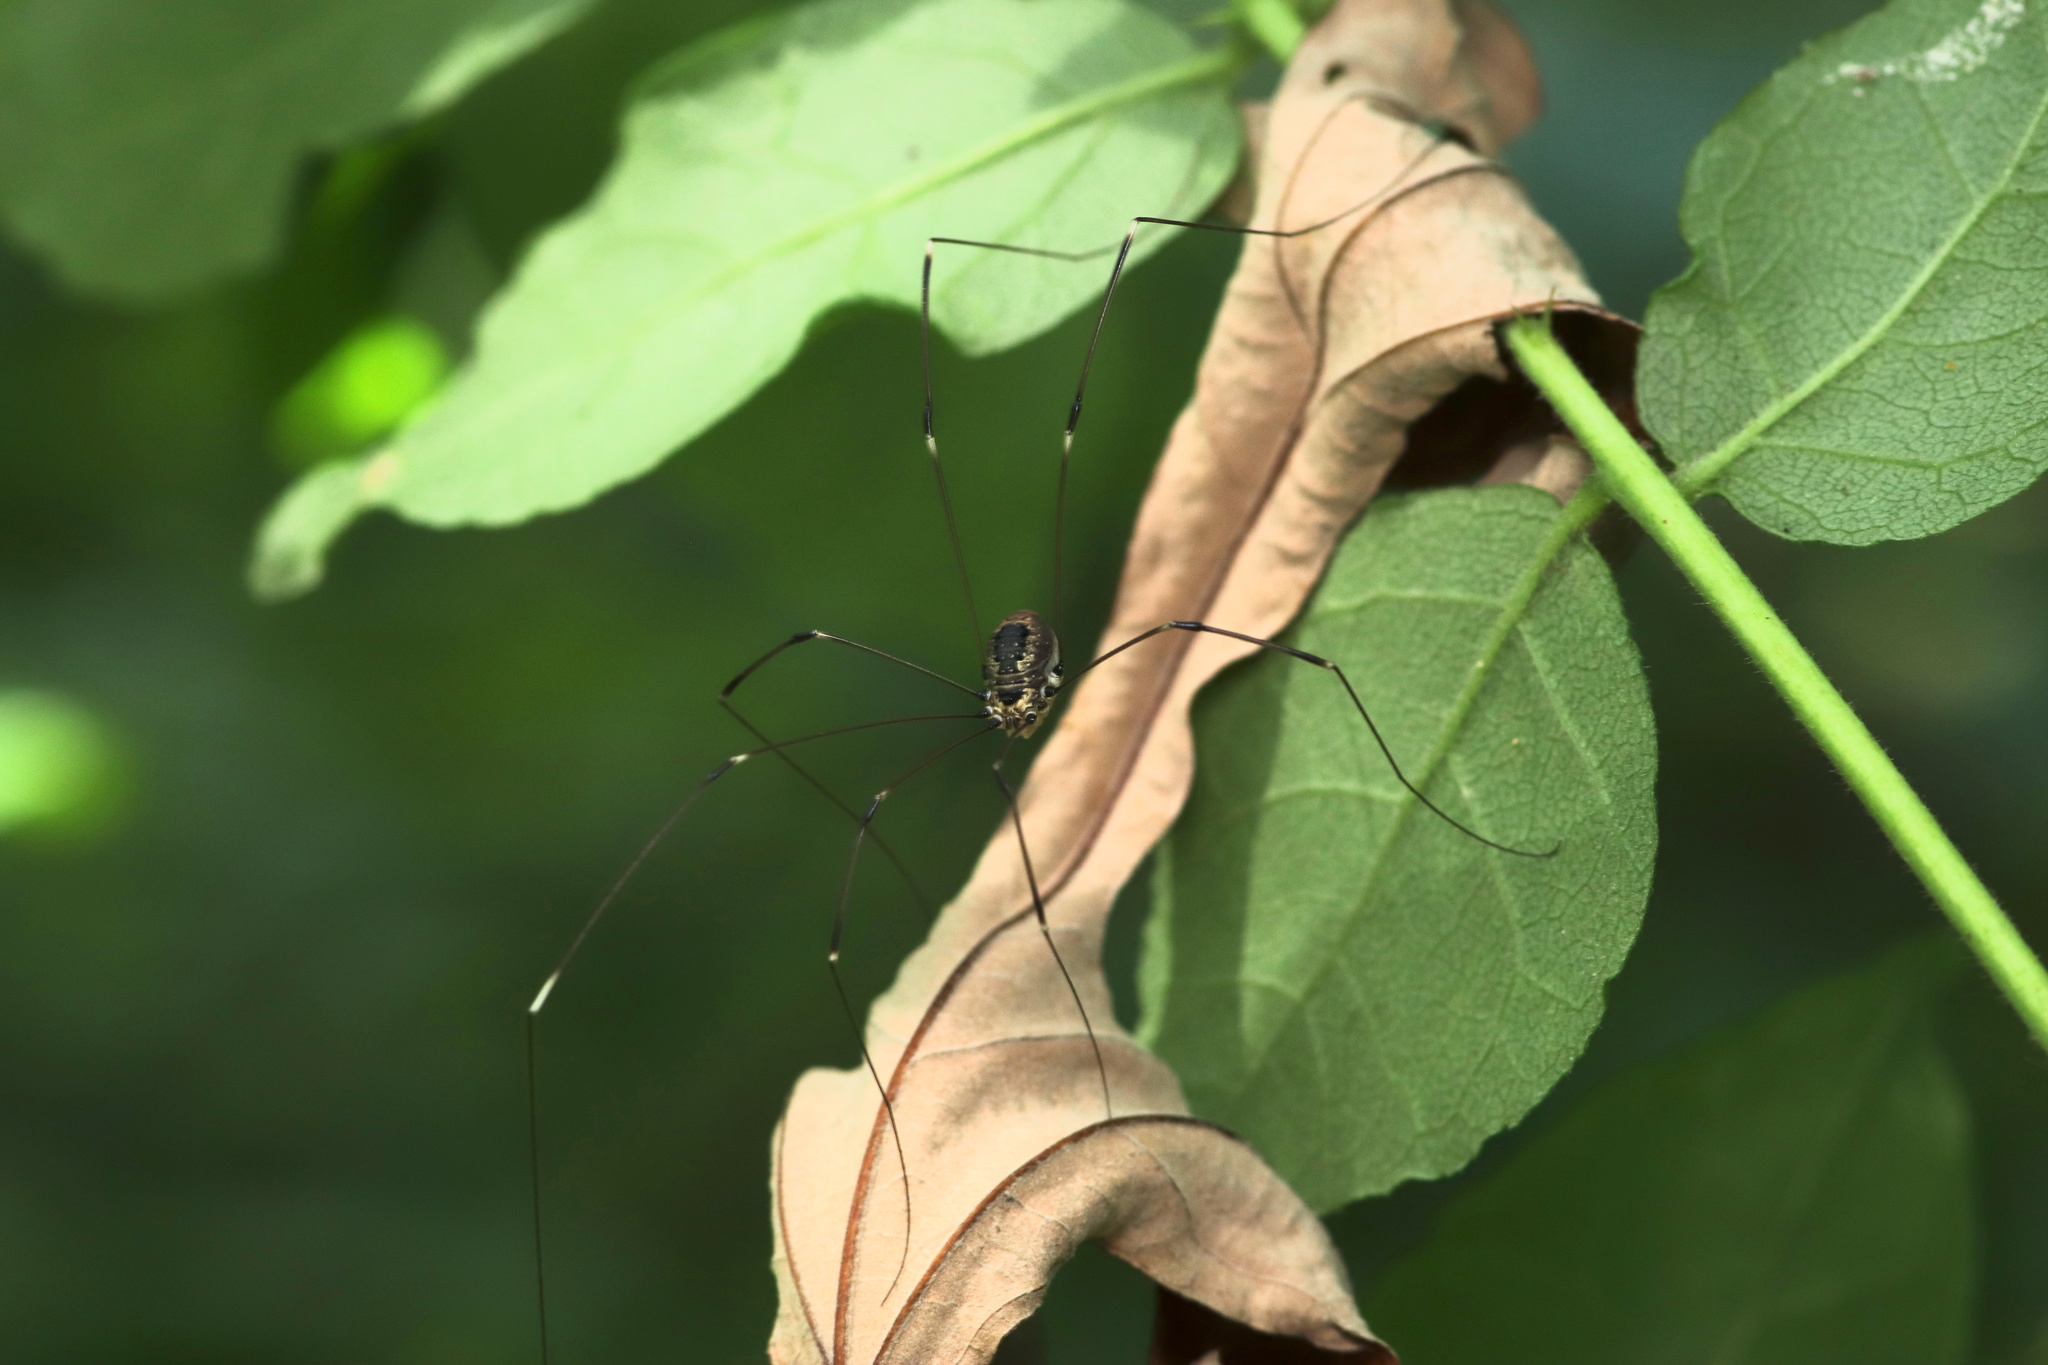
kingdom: Animalia
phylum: Arthropoda
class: Arachnida
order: Opiliones
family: Sclerosomatidae
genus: Leiobunum
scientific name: Leiobunum aldrichi
